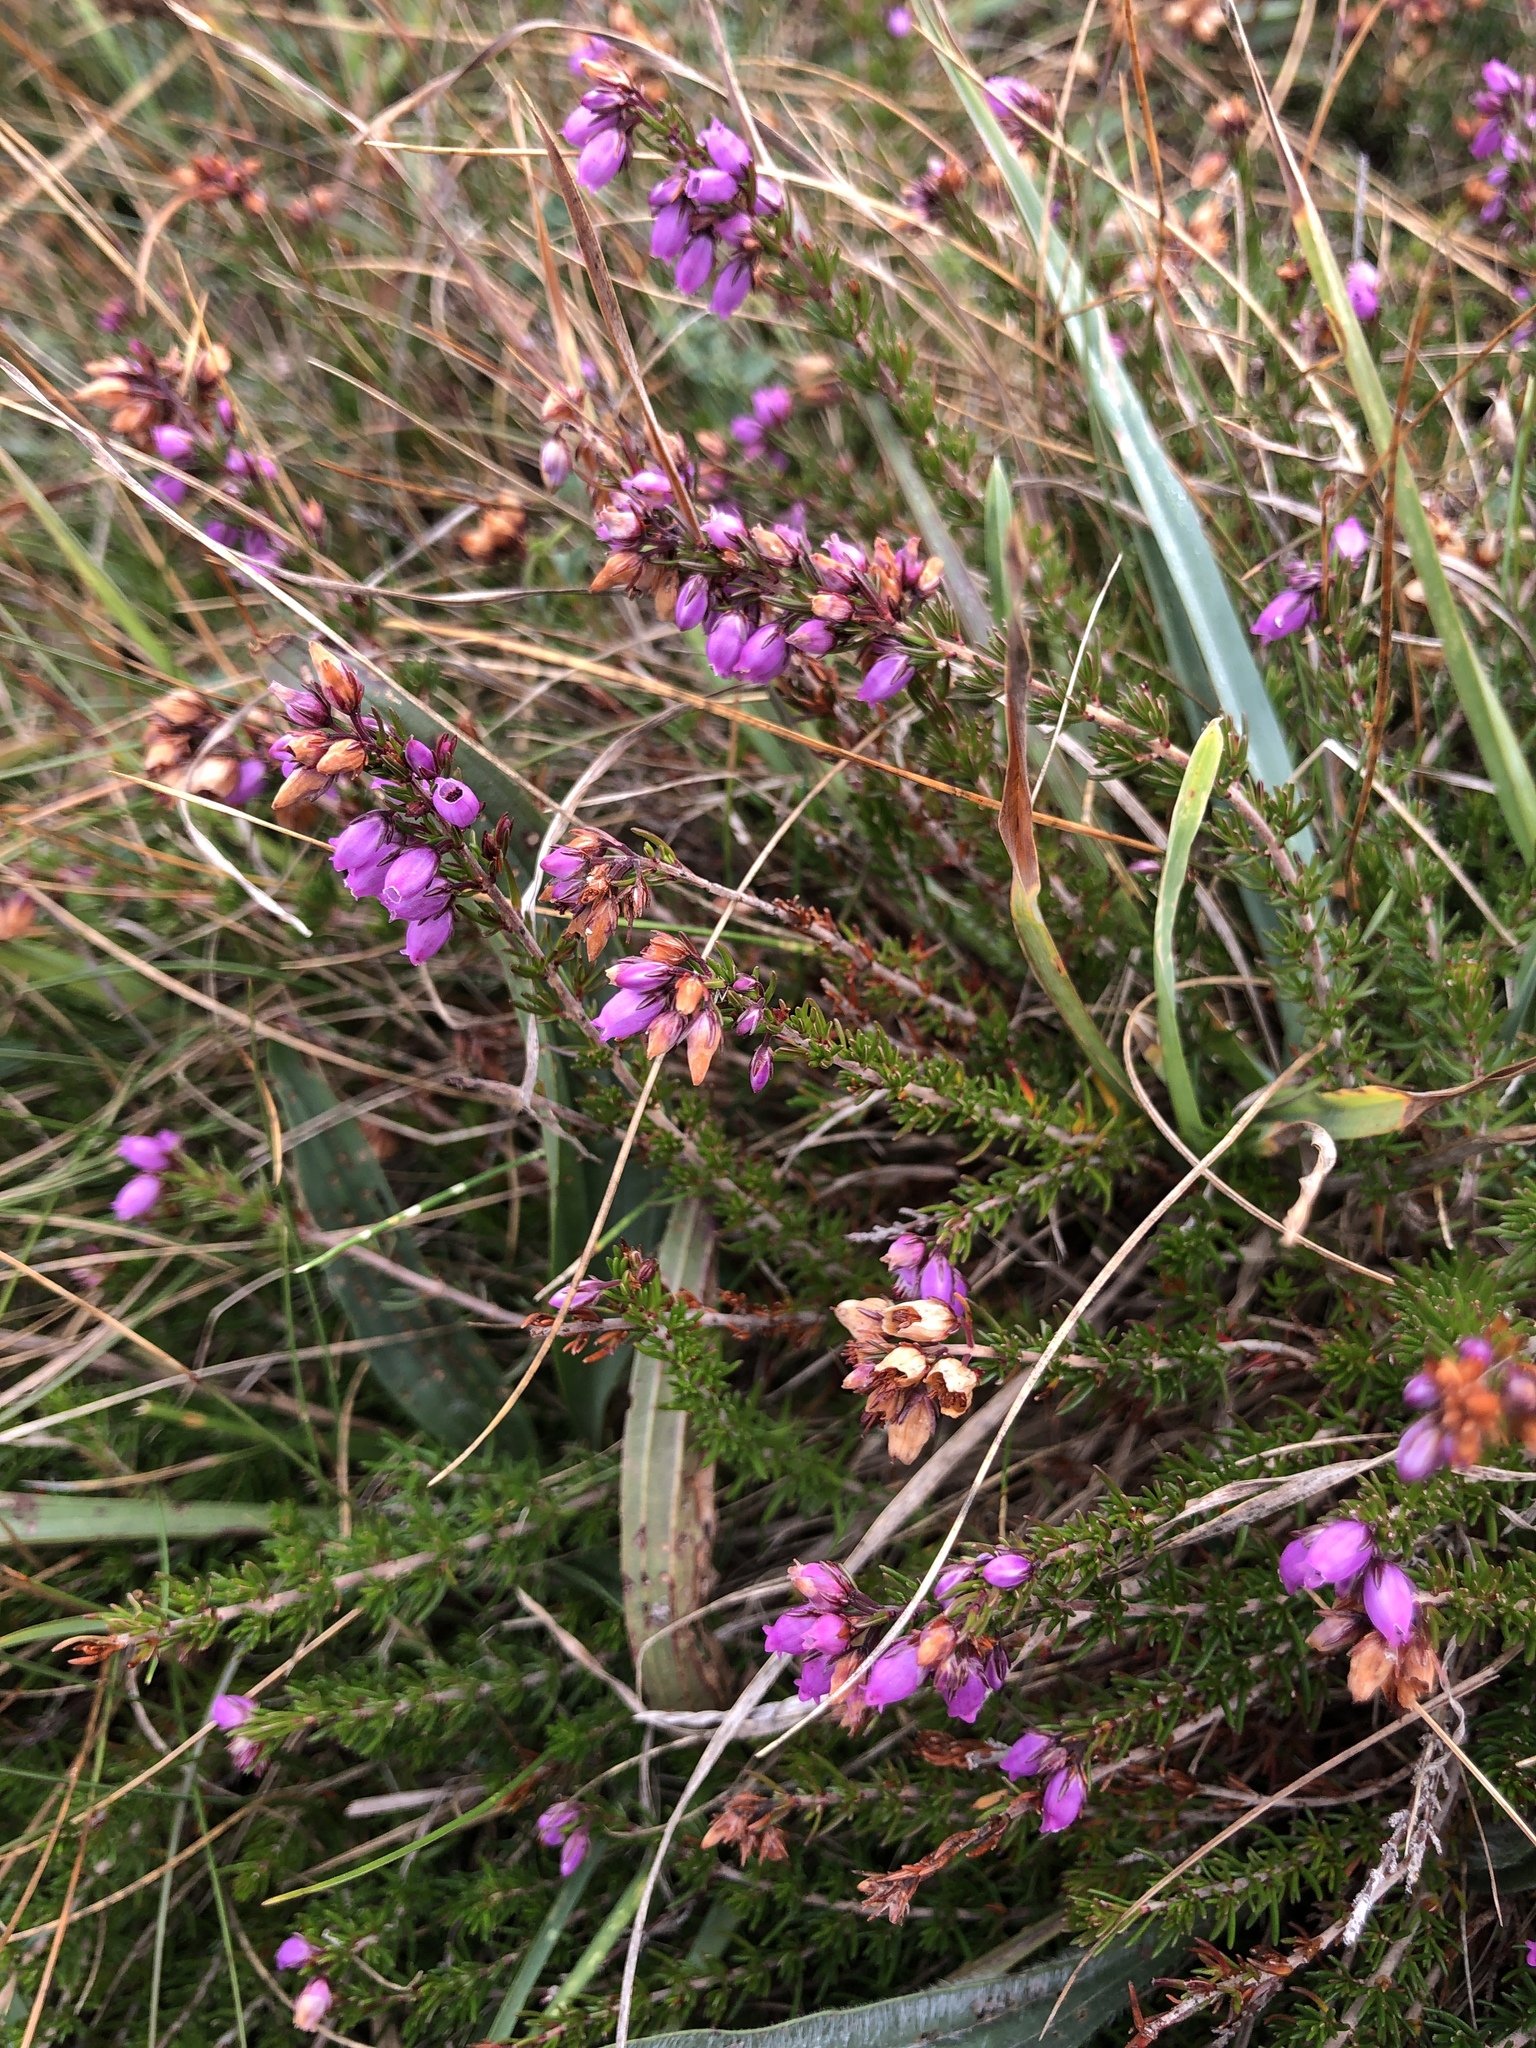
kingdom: Plantae
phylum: Tracheophyta
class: Magnoliopsida
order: Ericales
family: Ericaceae
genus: Erica
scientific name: Erica cinerea
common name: Bell heather
